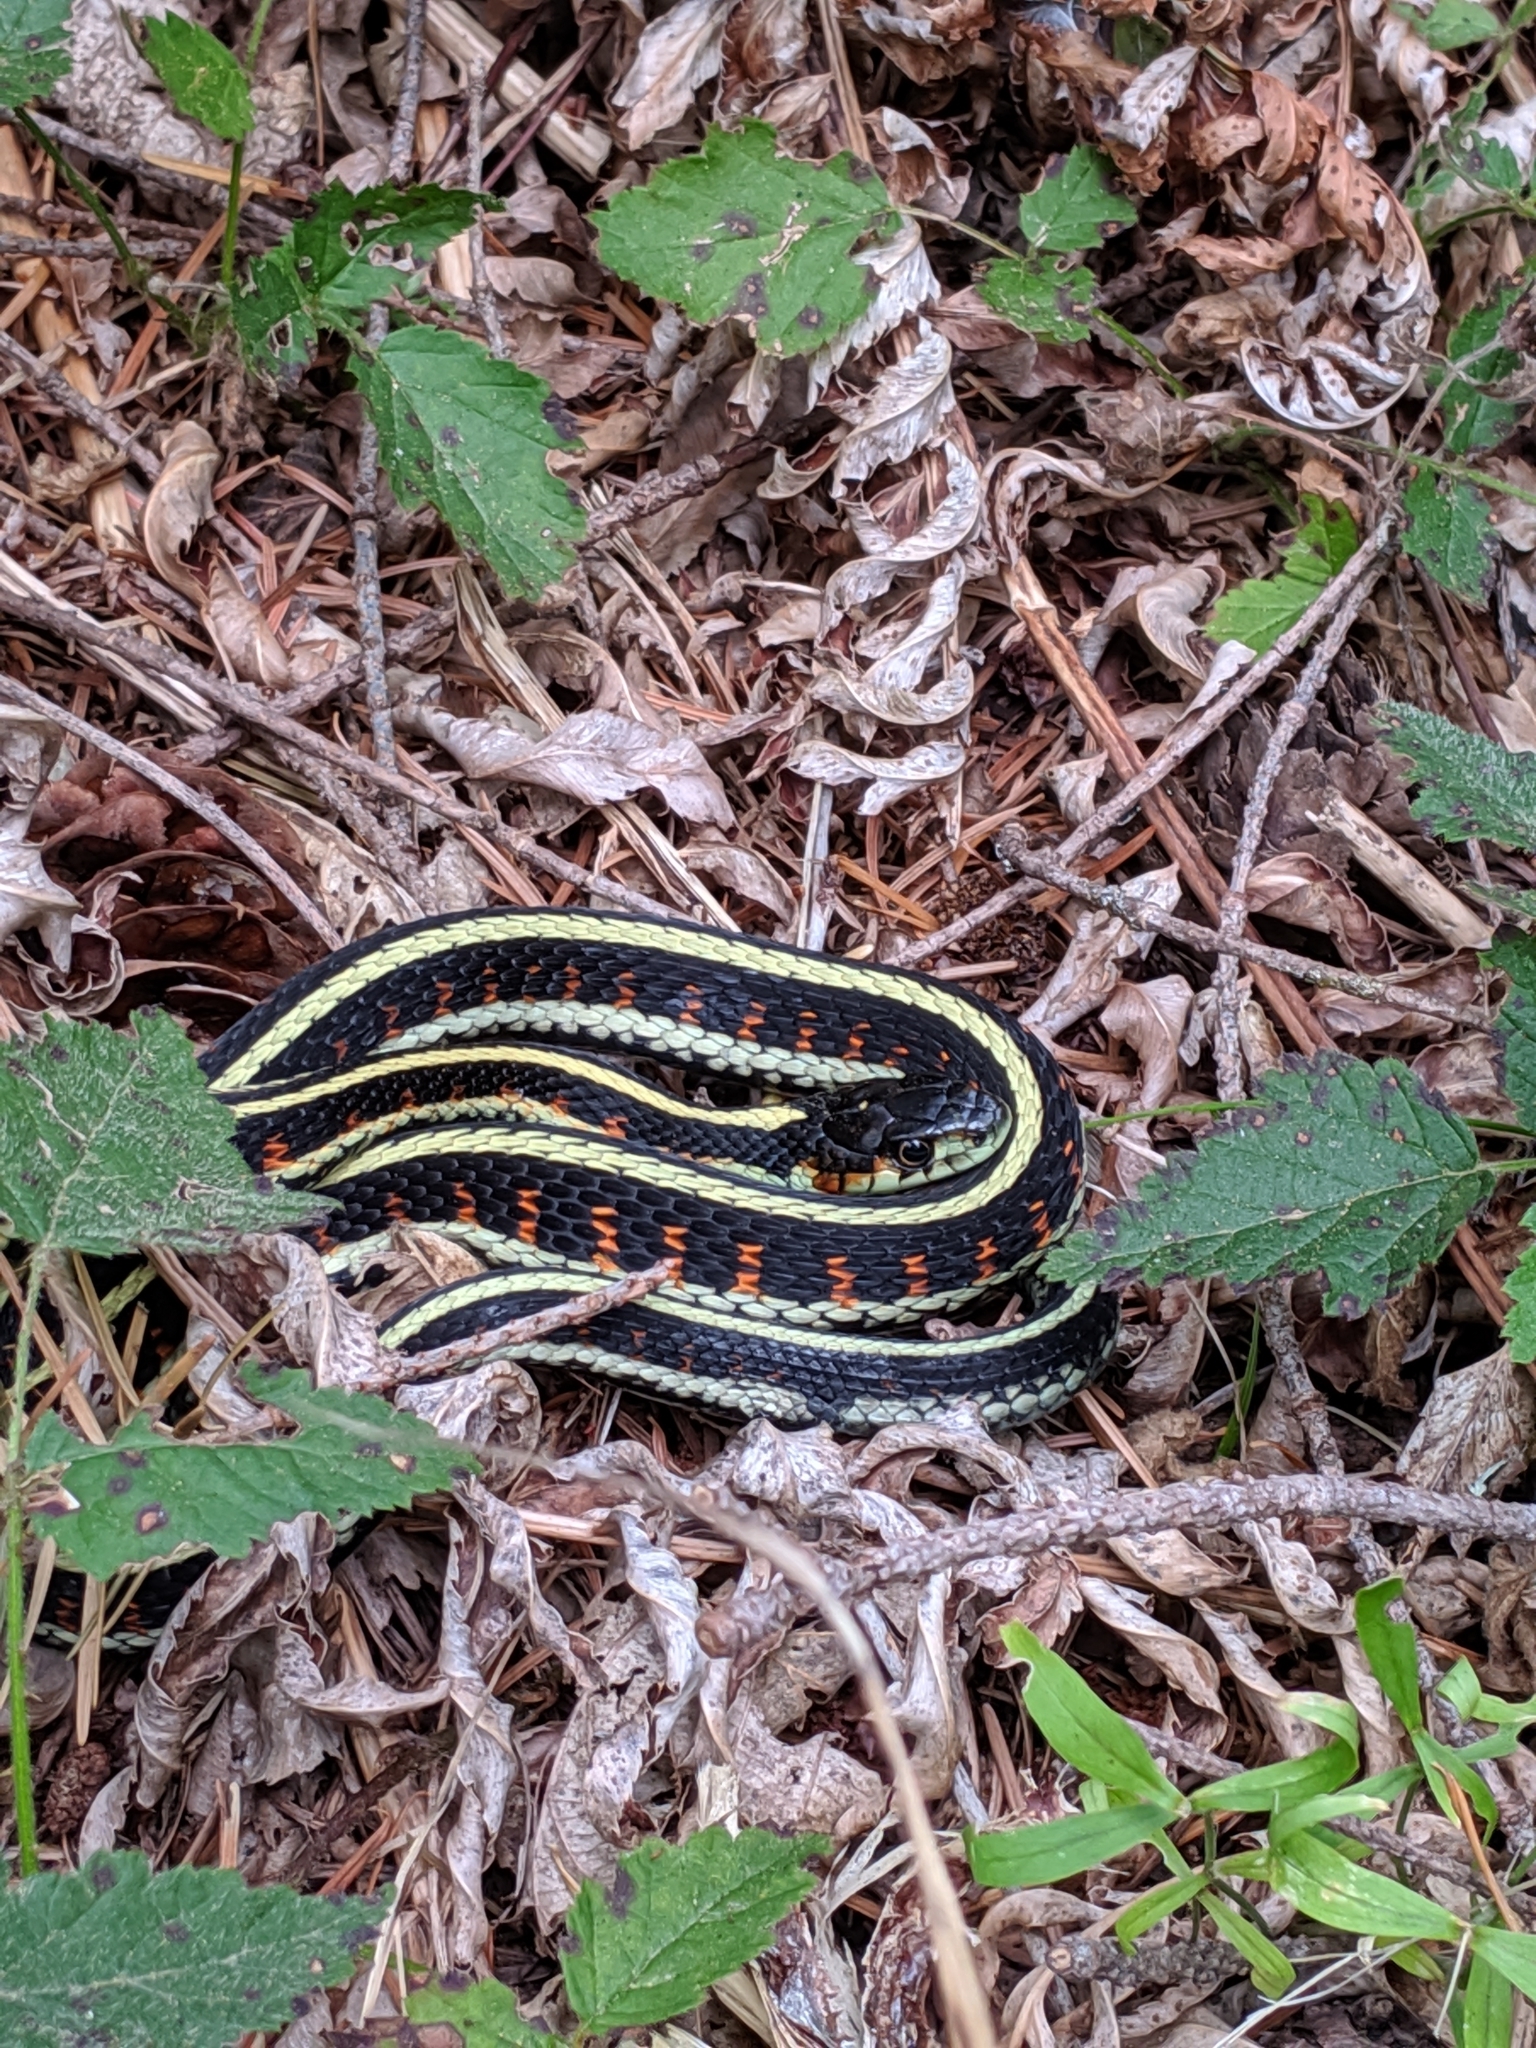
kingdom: Animalia
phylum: Chordata
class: Squamata
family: Colubridae
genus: Thamnophis
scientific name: Thamnophis sirtalis
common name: Common garter snake
